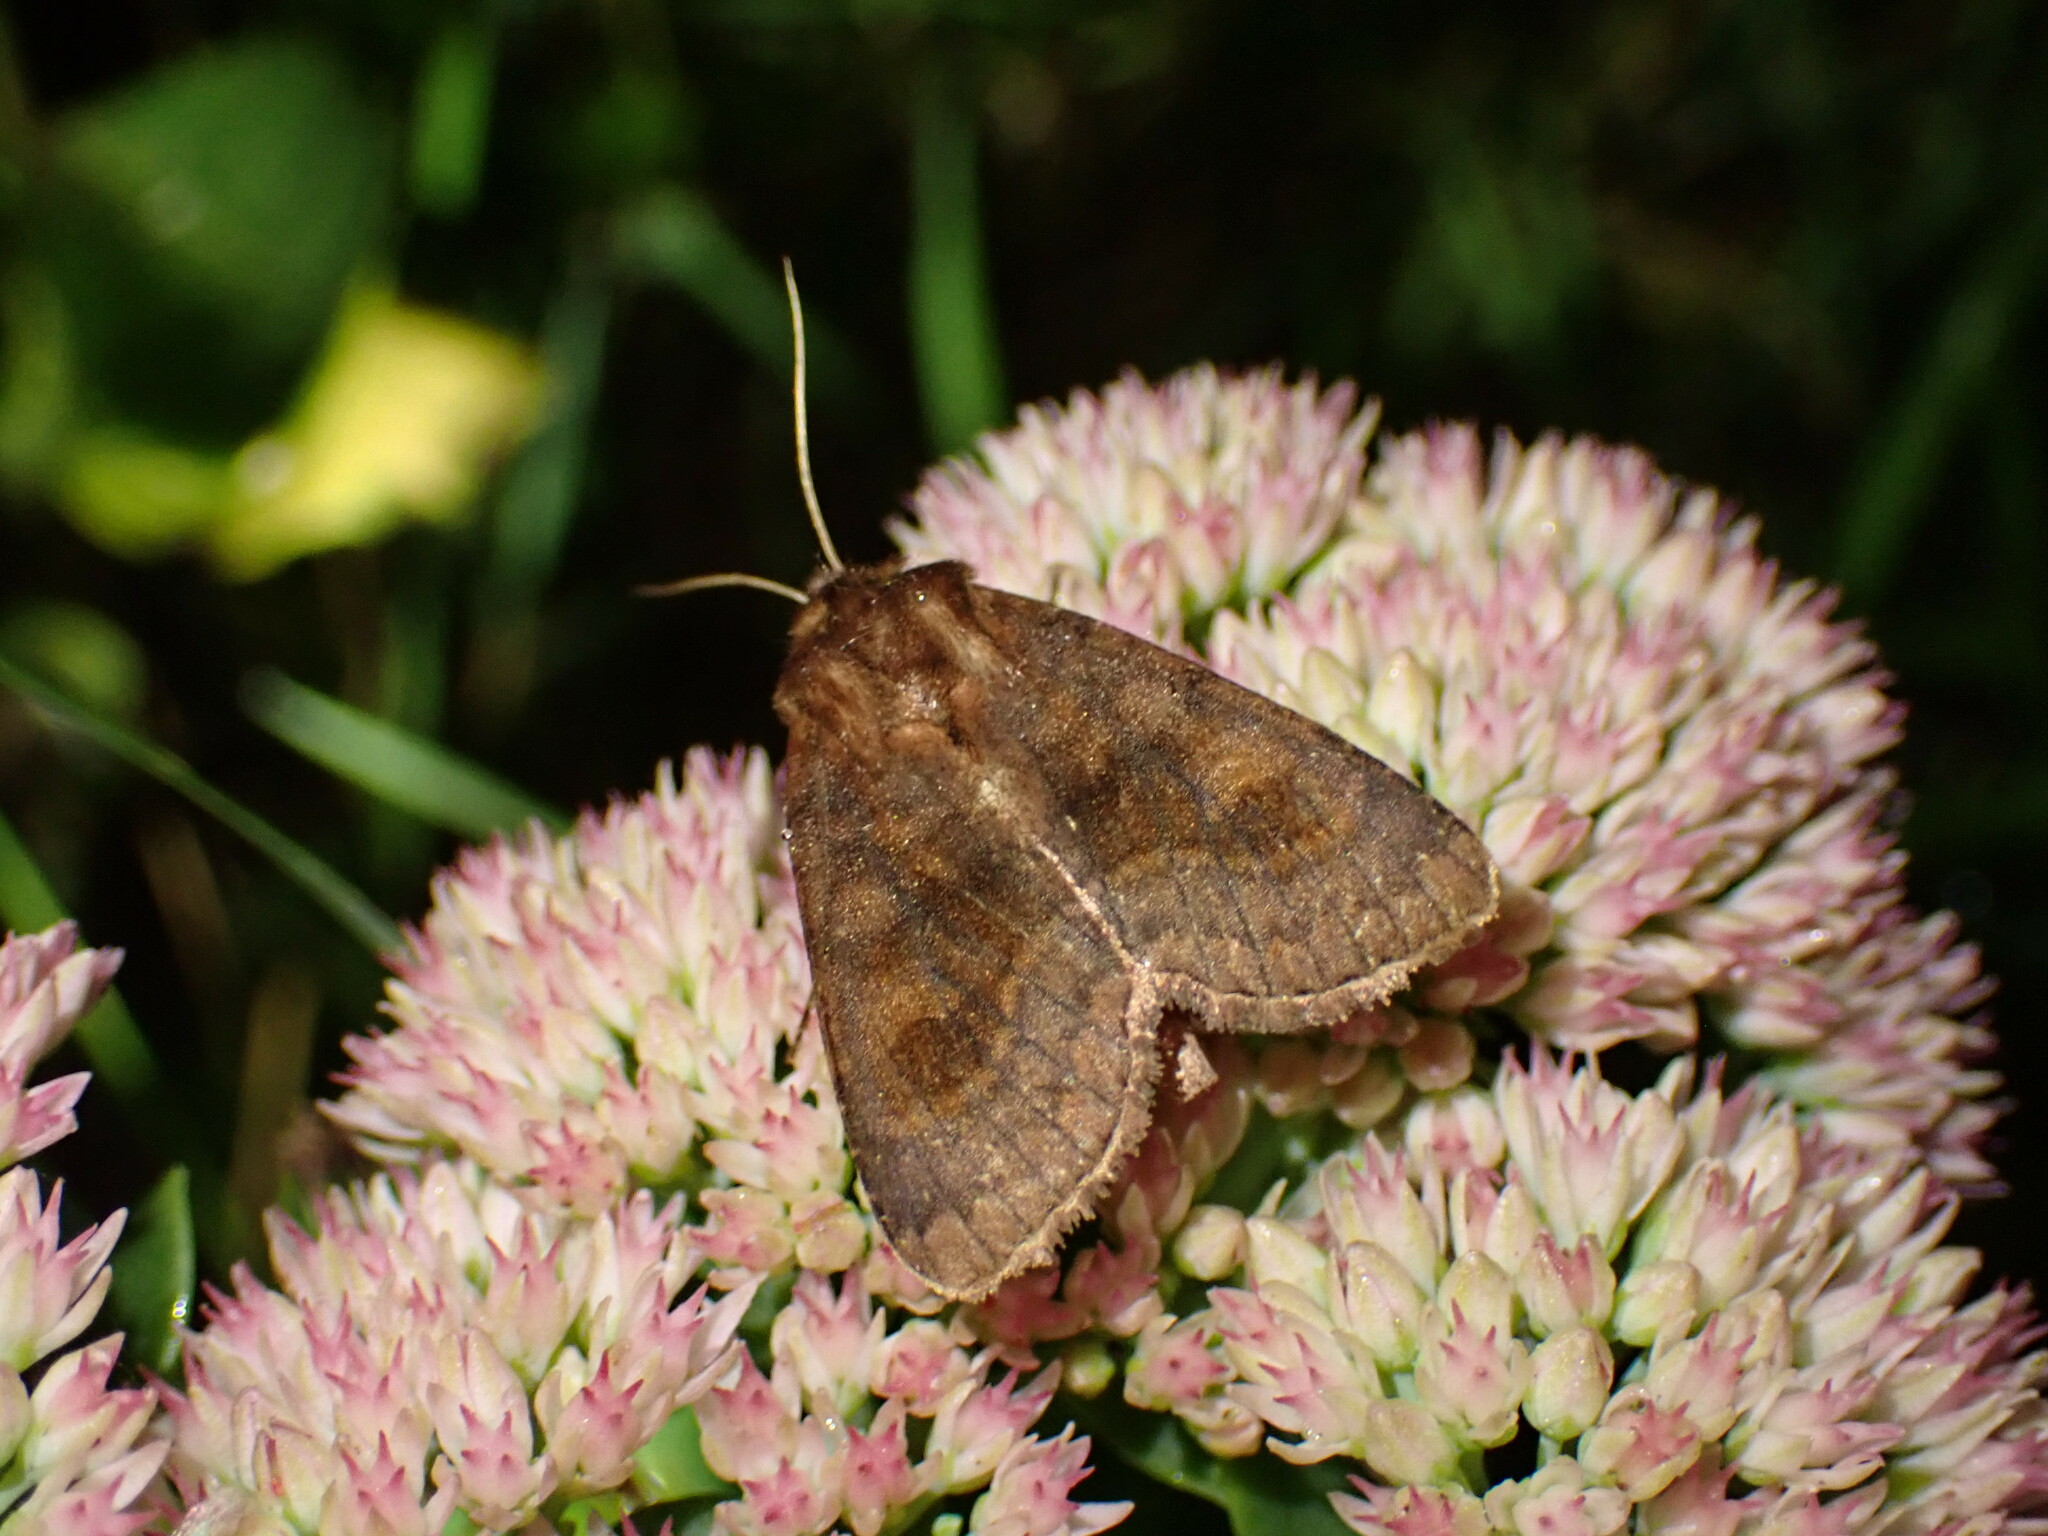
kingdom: Animalia
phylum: Arthropoda
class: Insecta
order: Lepidoptera
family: Noctuidae
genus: Nephelodes
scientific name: Nephelodes minians
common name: Bronzed cutworm
